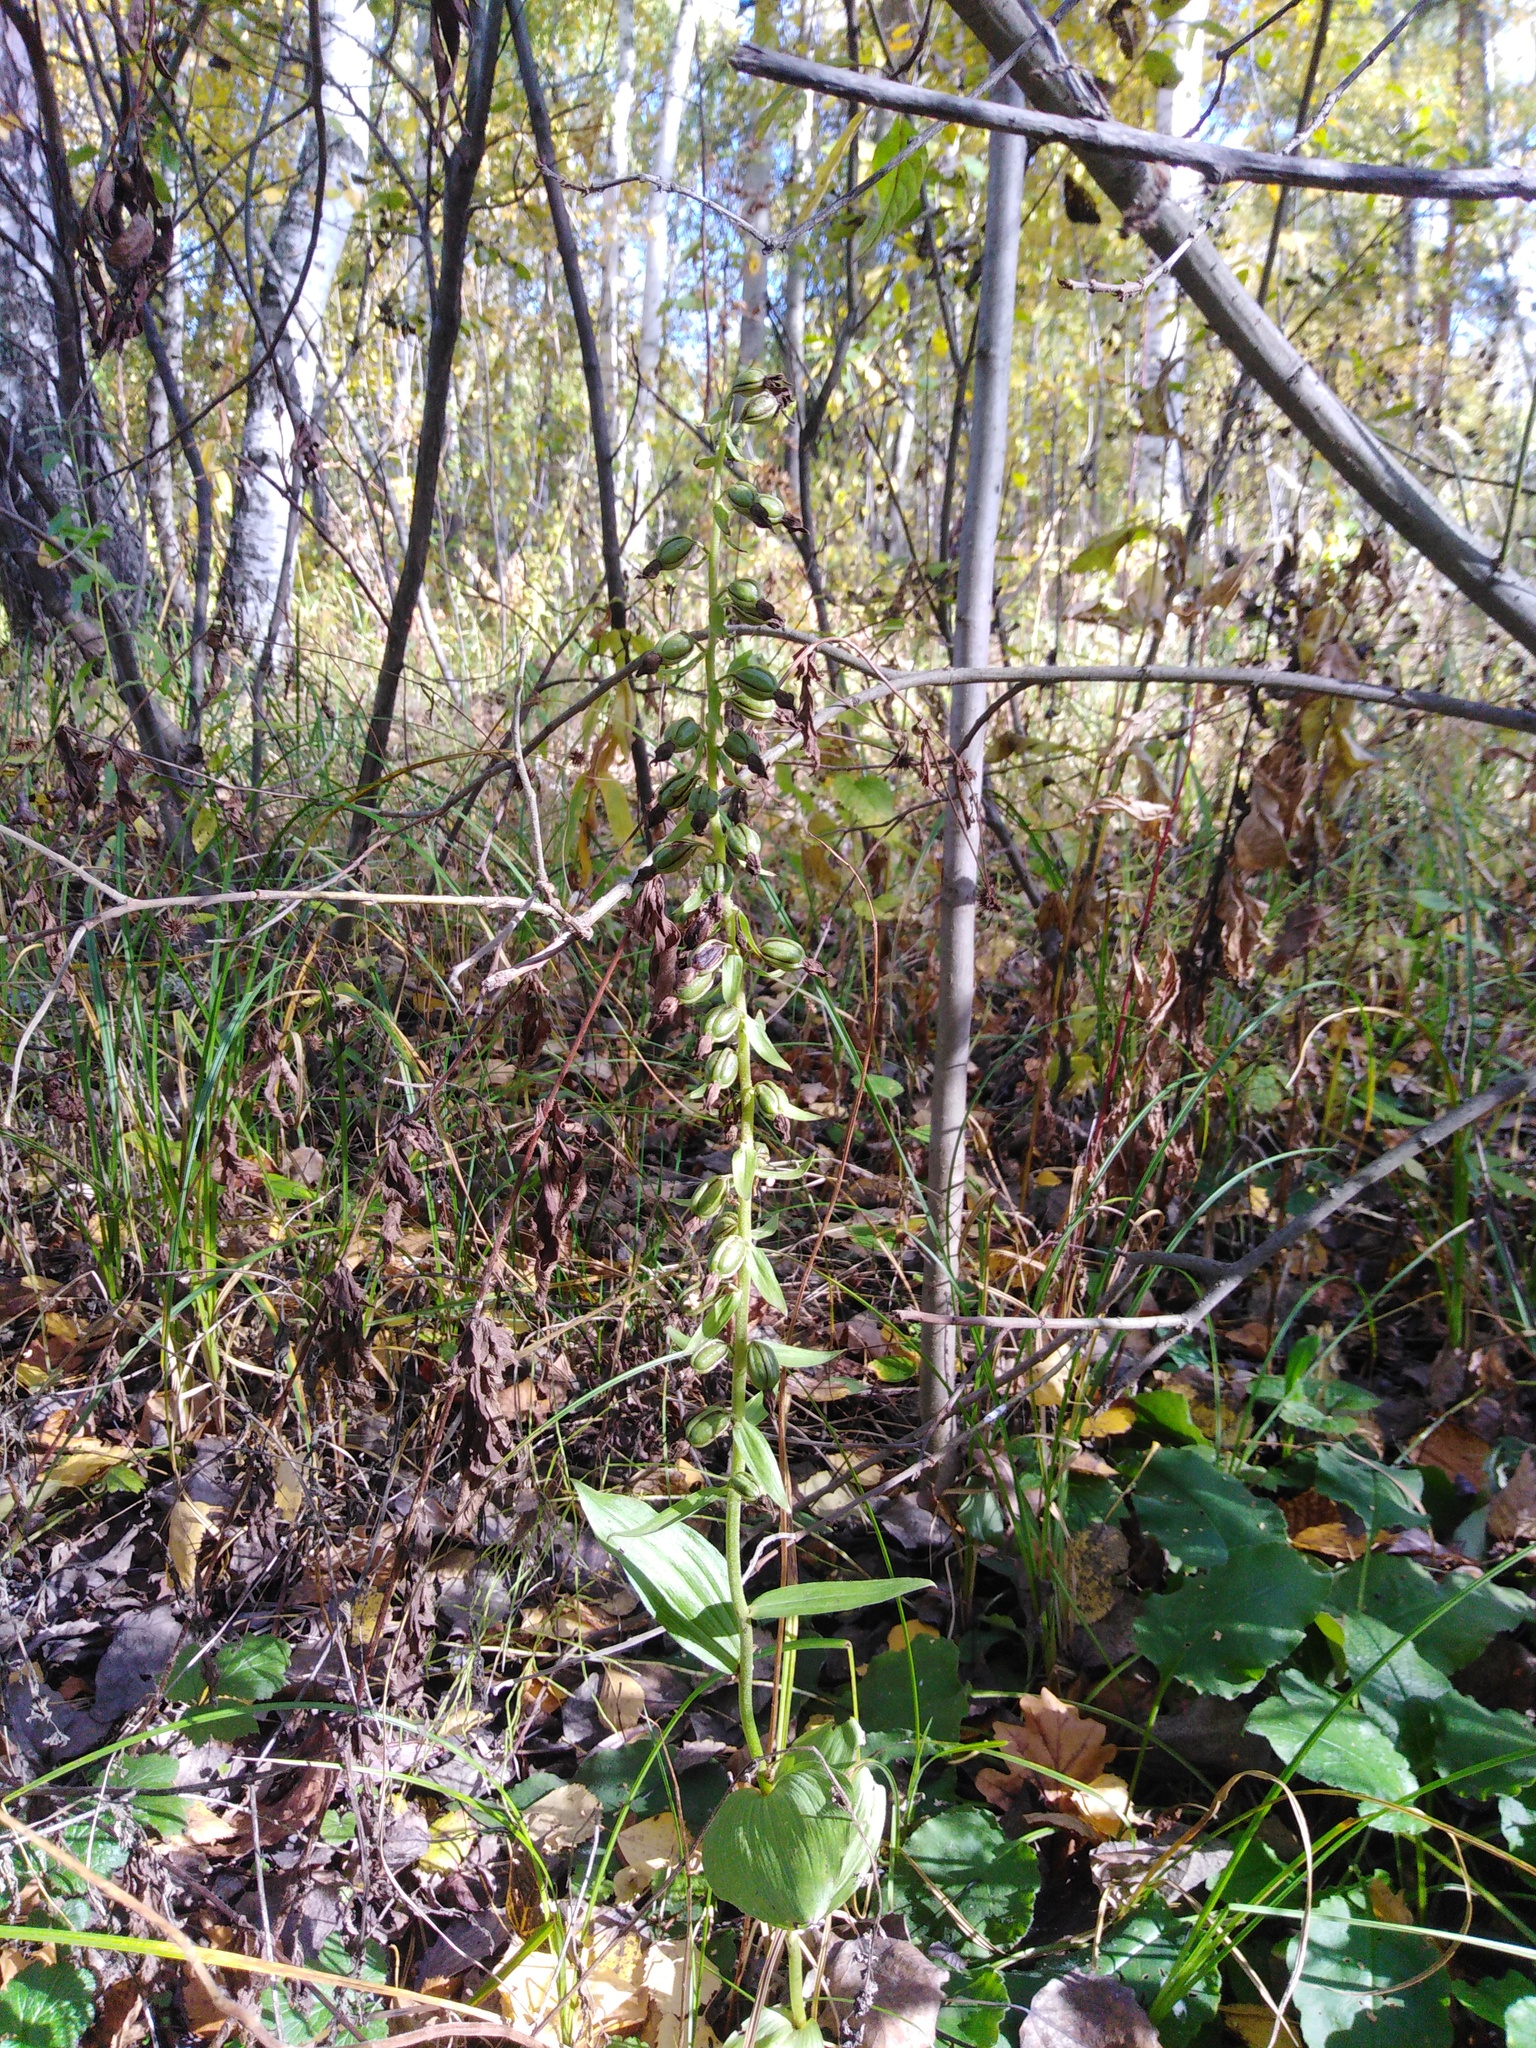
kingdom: Plantae
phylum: Tracheophyta
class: Liliopsida
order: Asparagales
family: Orchidaceae
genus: Epipactis
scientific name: Epipactis helleborine
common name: Broad-leaved helleborine
